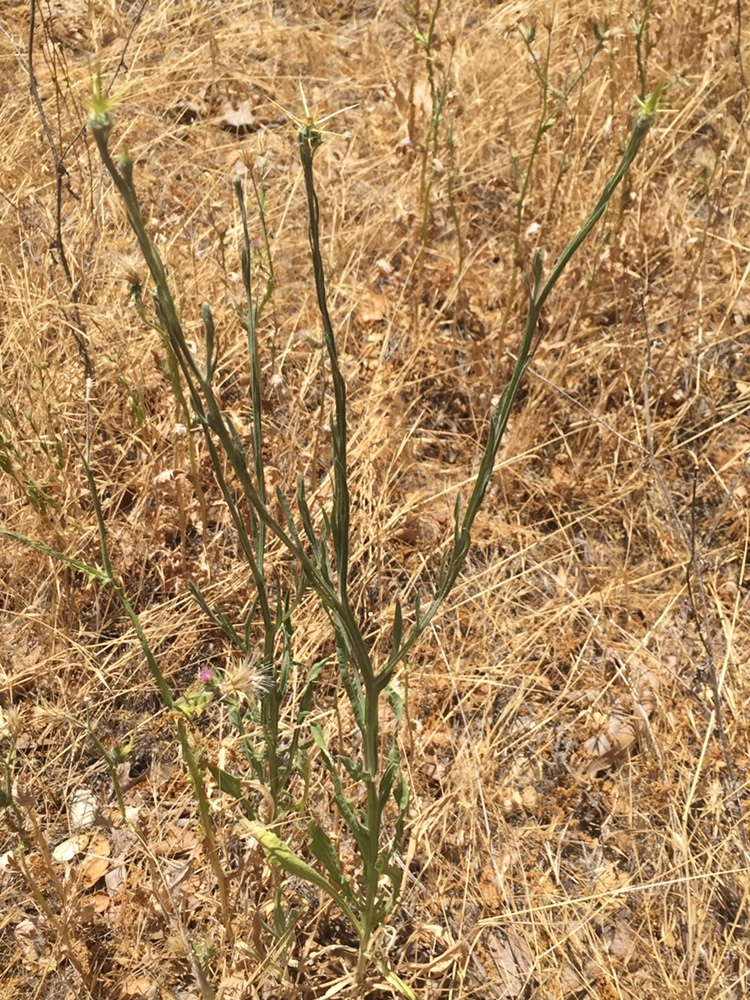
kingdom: Plantae
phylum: Tracheophyta
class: Magnoliopsida
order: Asterales
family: Asteraceae
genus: Centaurea
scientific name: Centaurea solstitialis
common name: Yellow star-thistle
